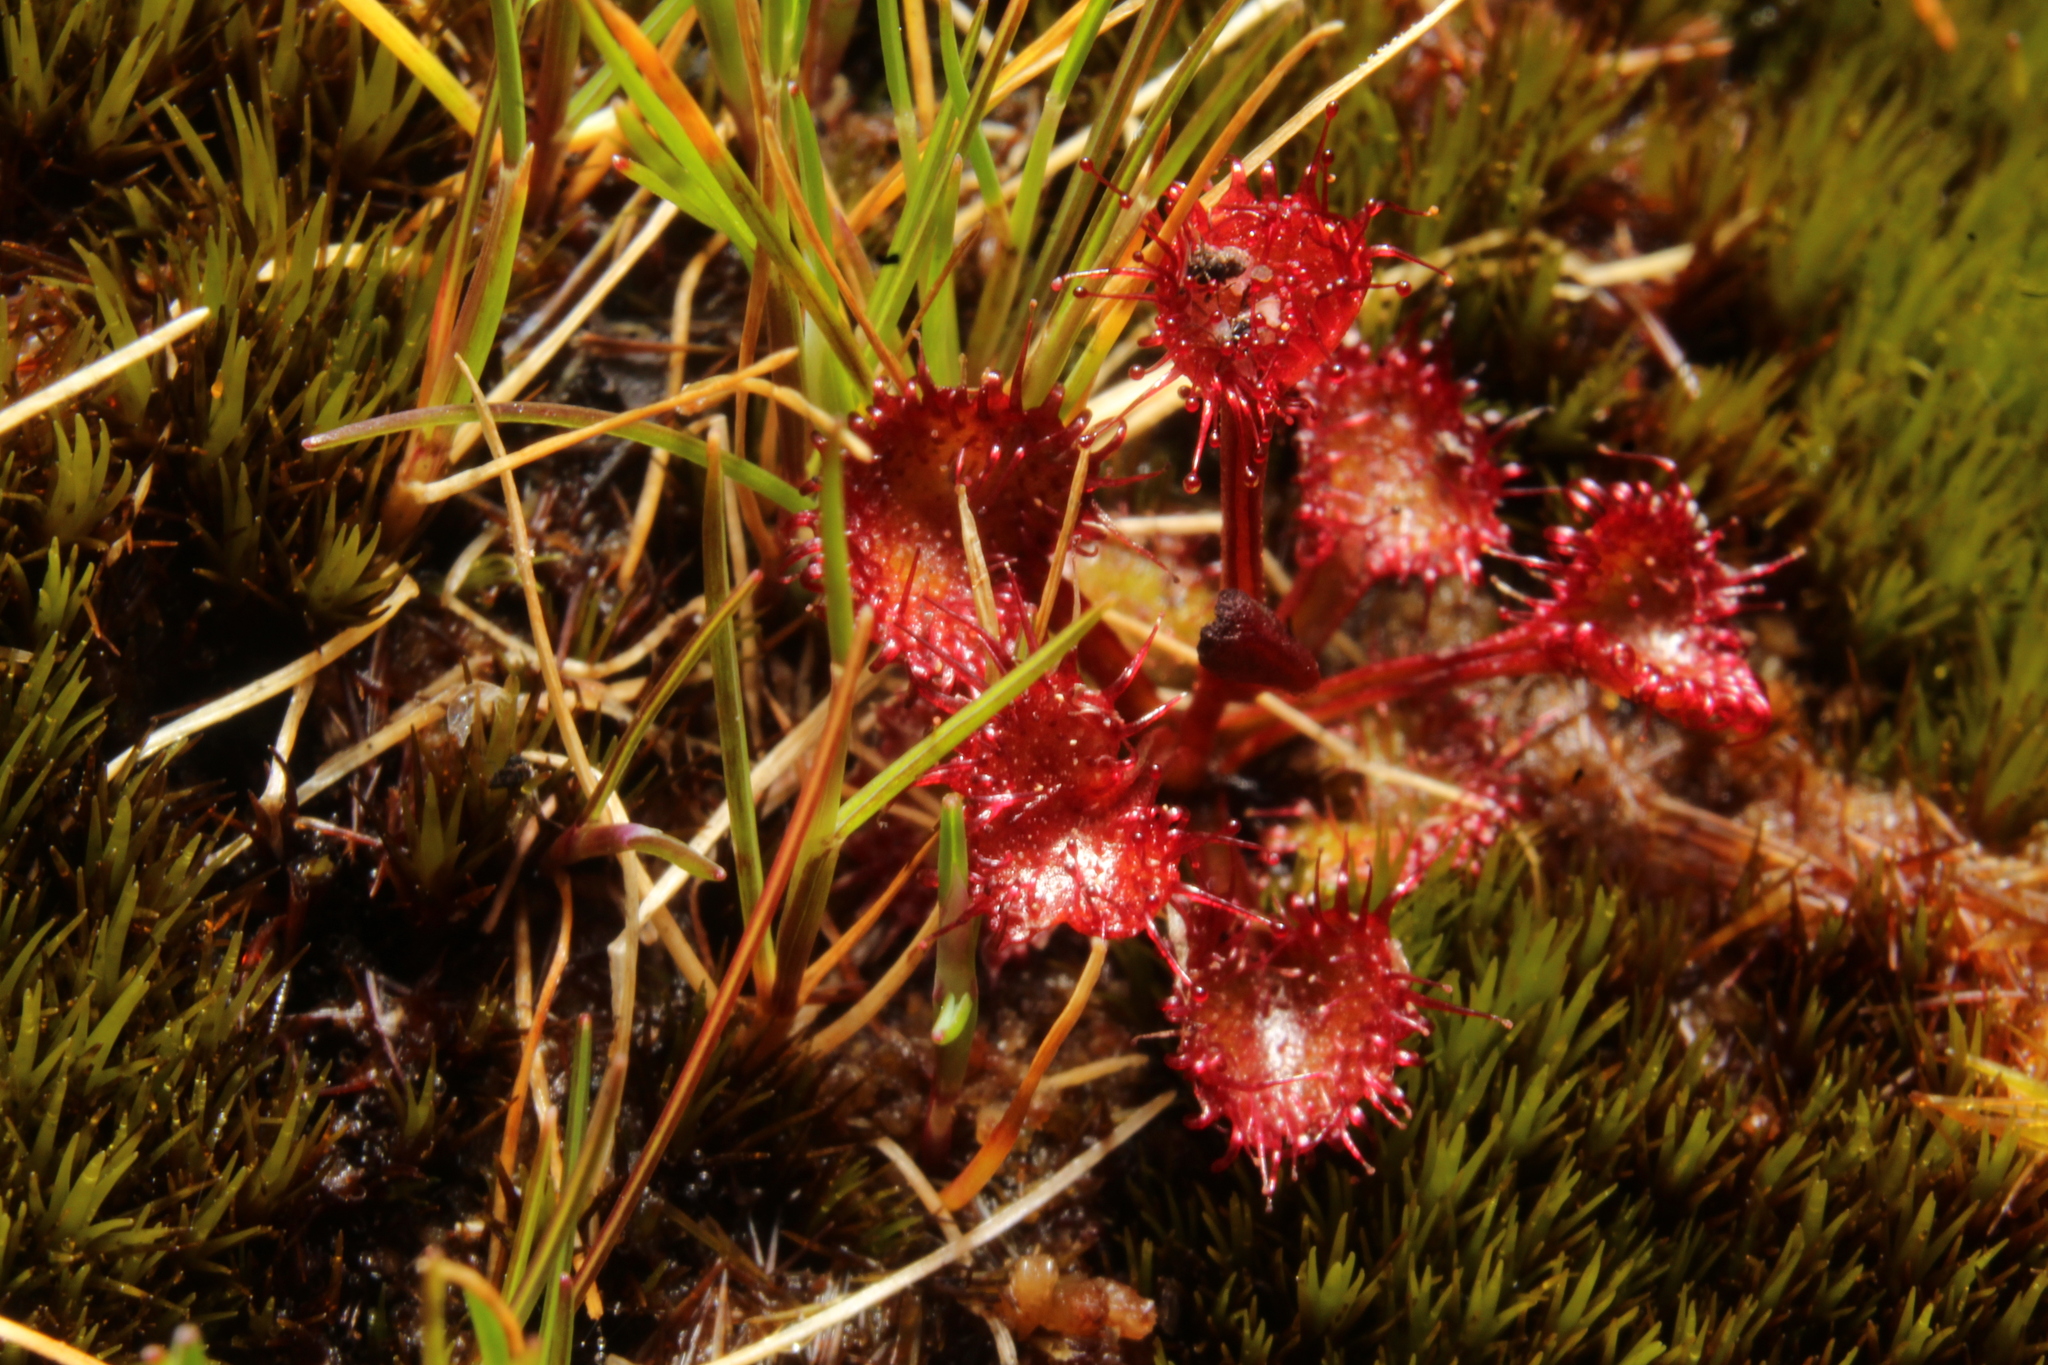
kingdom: Plantae
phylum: Tracheophyta
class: Magnoliopsida
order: Caryophyllales
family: Droseraceae
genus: Drosera
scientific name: Drosera monticola
